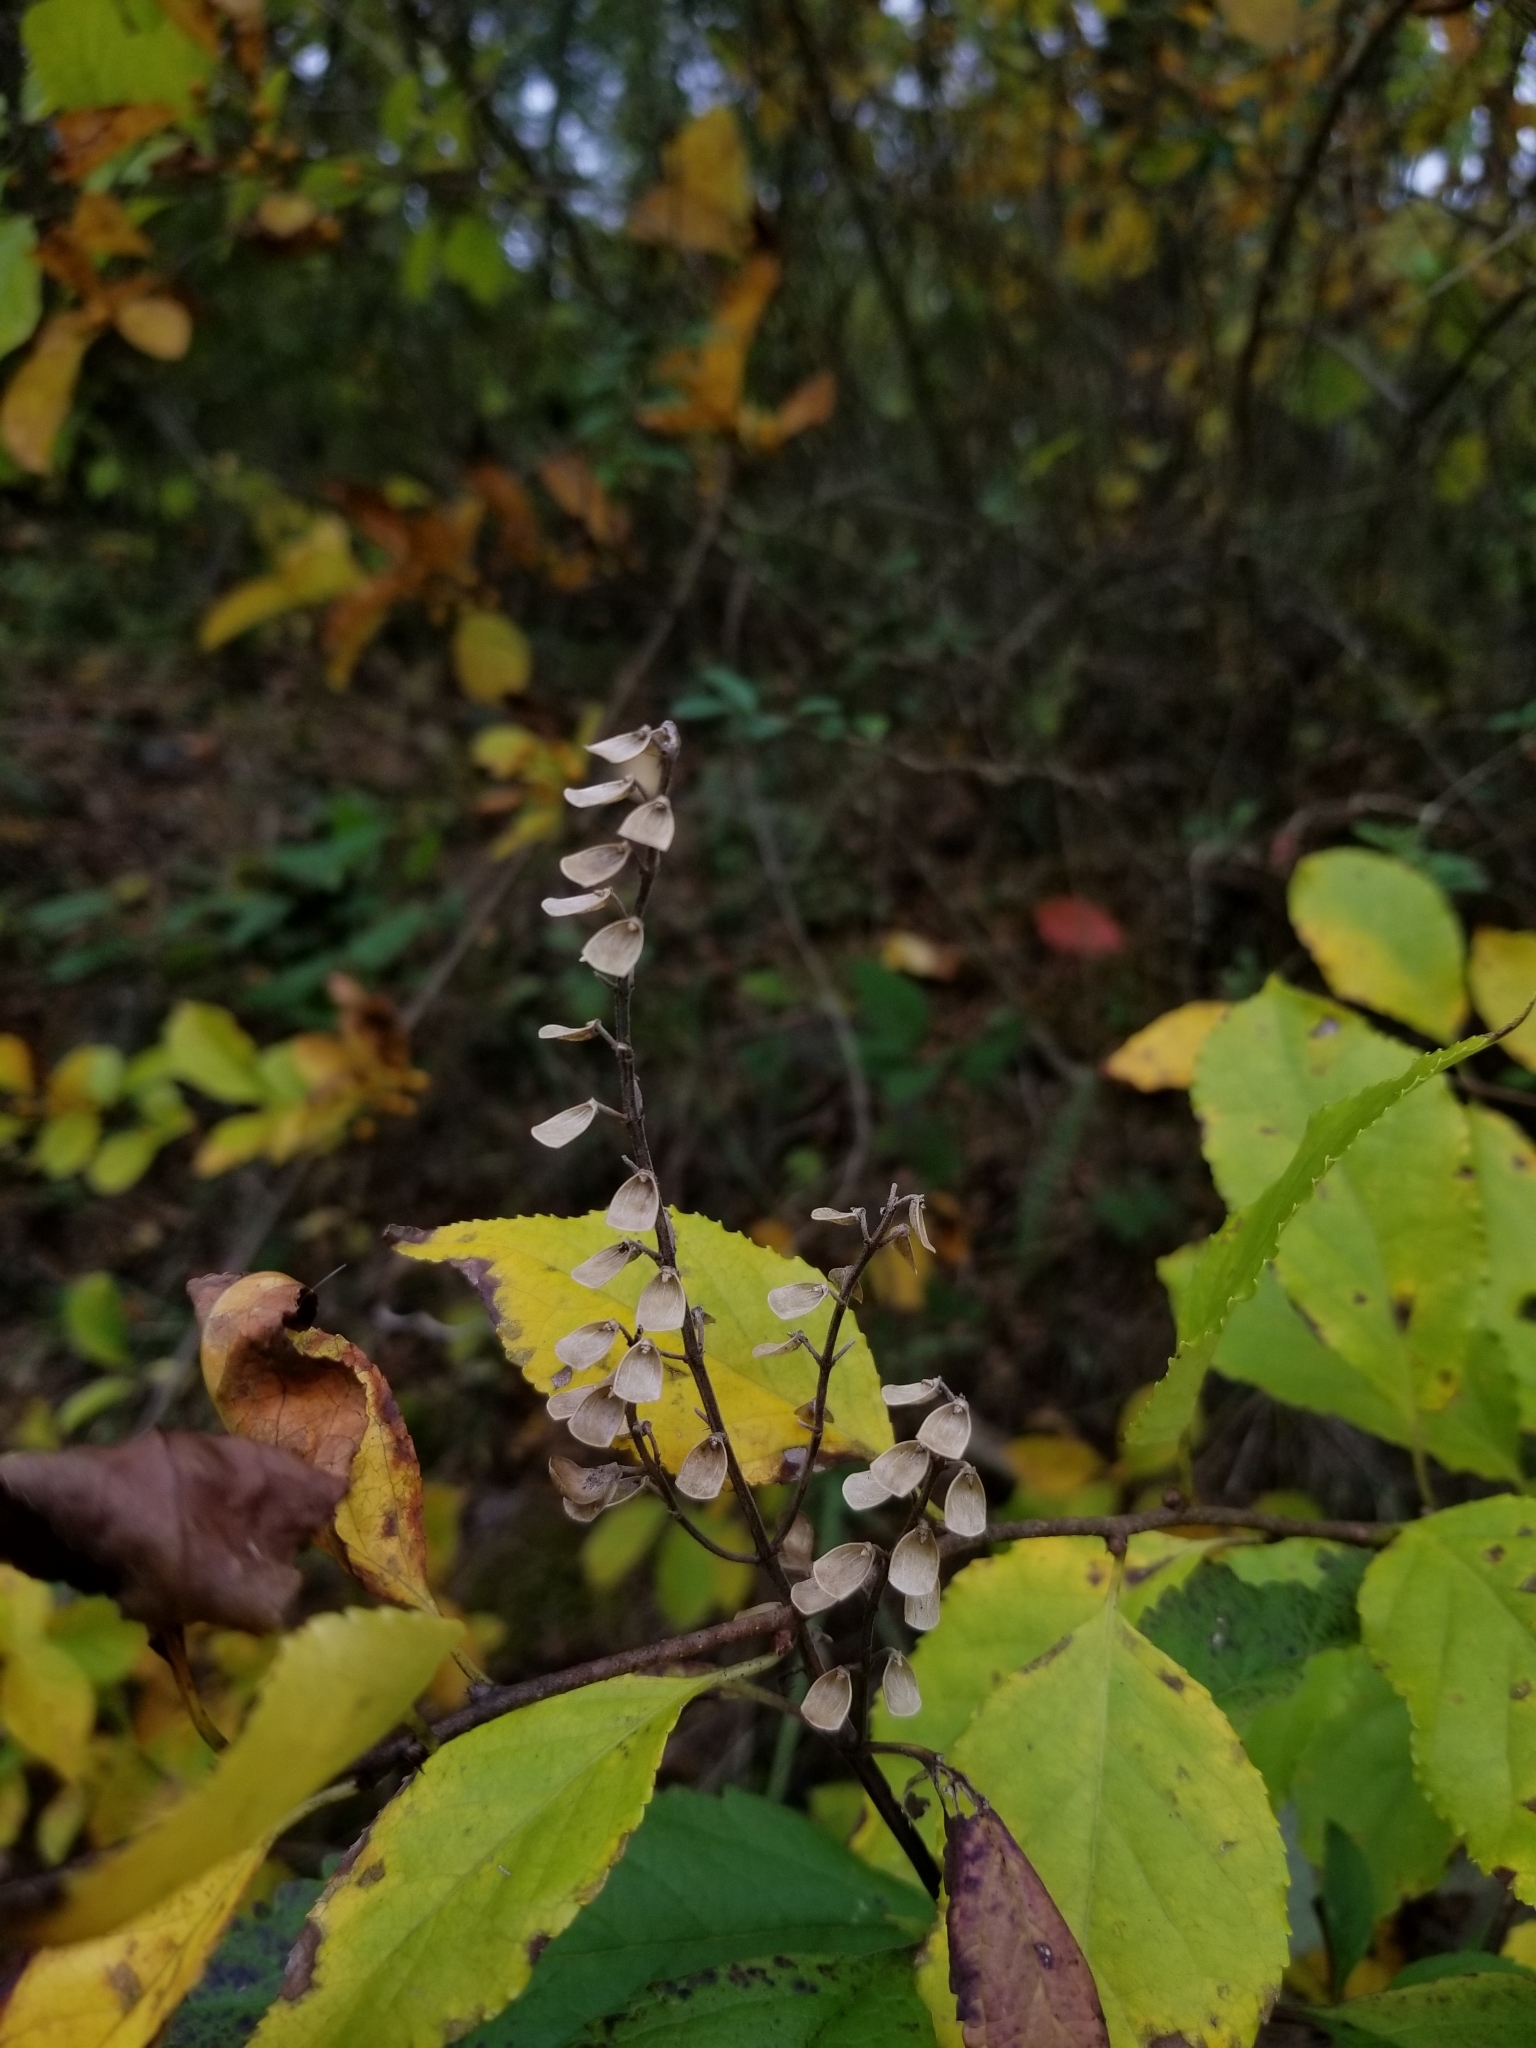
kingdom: Plantae
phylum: Tracheophyta
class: Magnoliopsida
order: Lamiales
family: Lamiaceae
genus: Scutellaria
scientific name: Scutellaria incana
